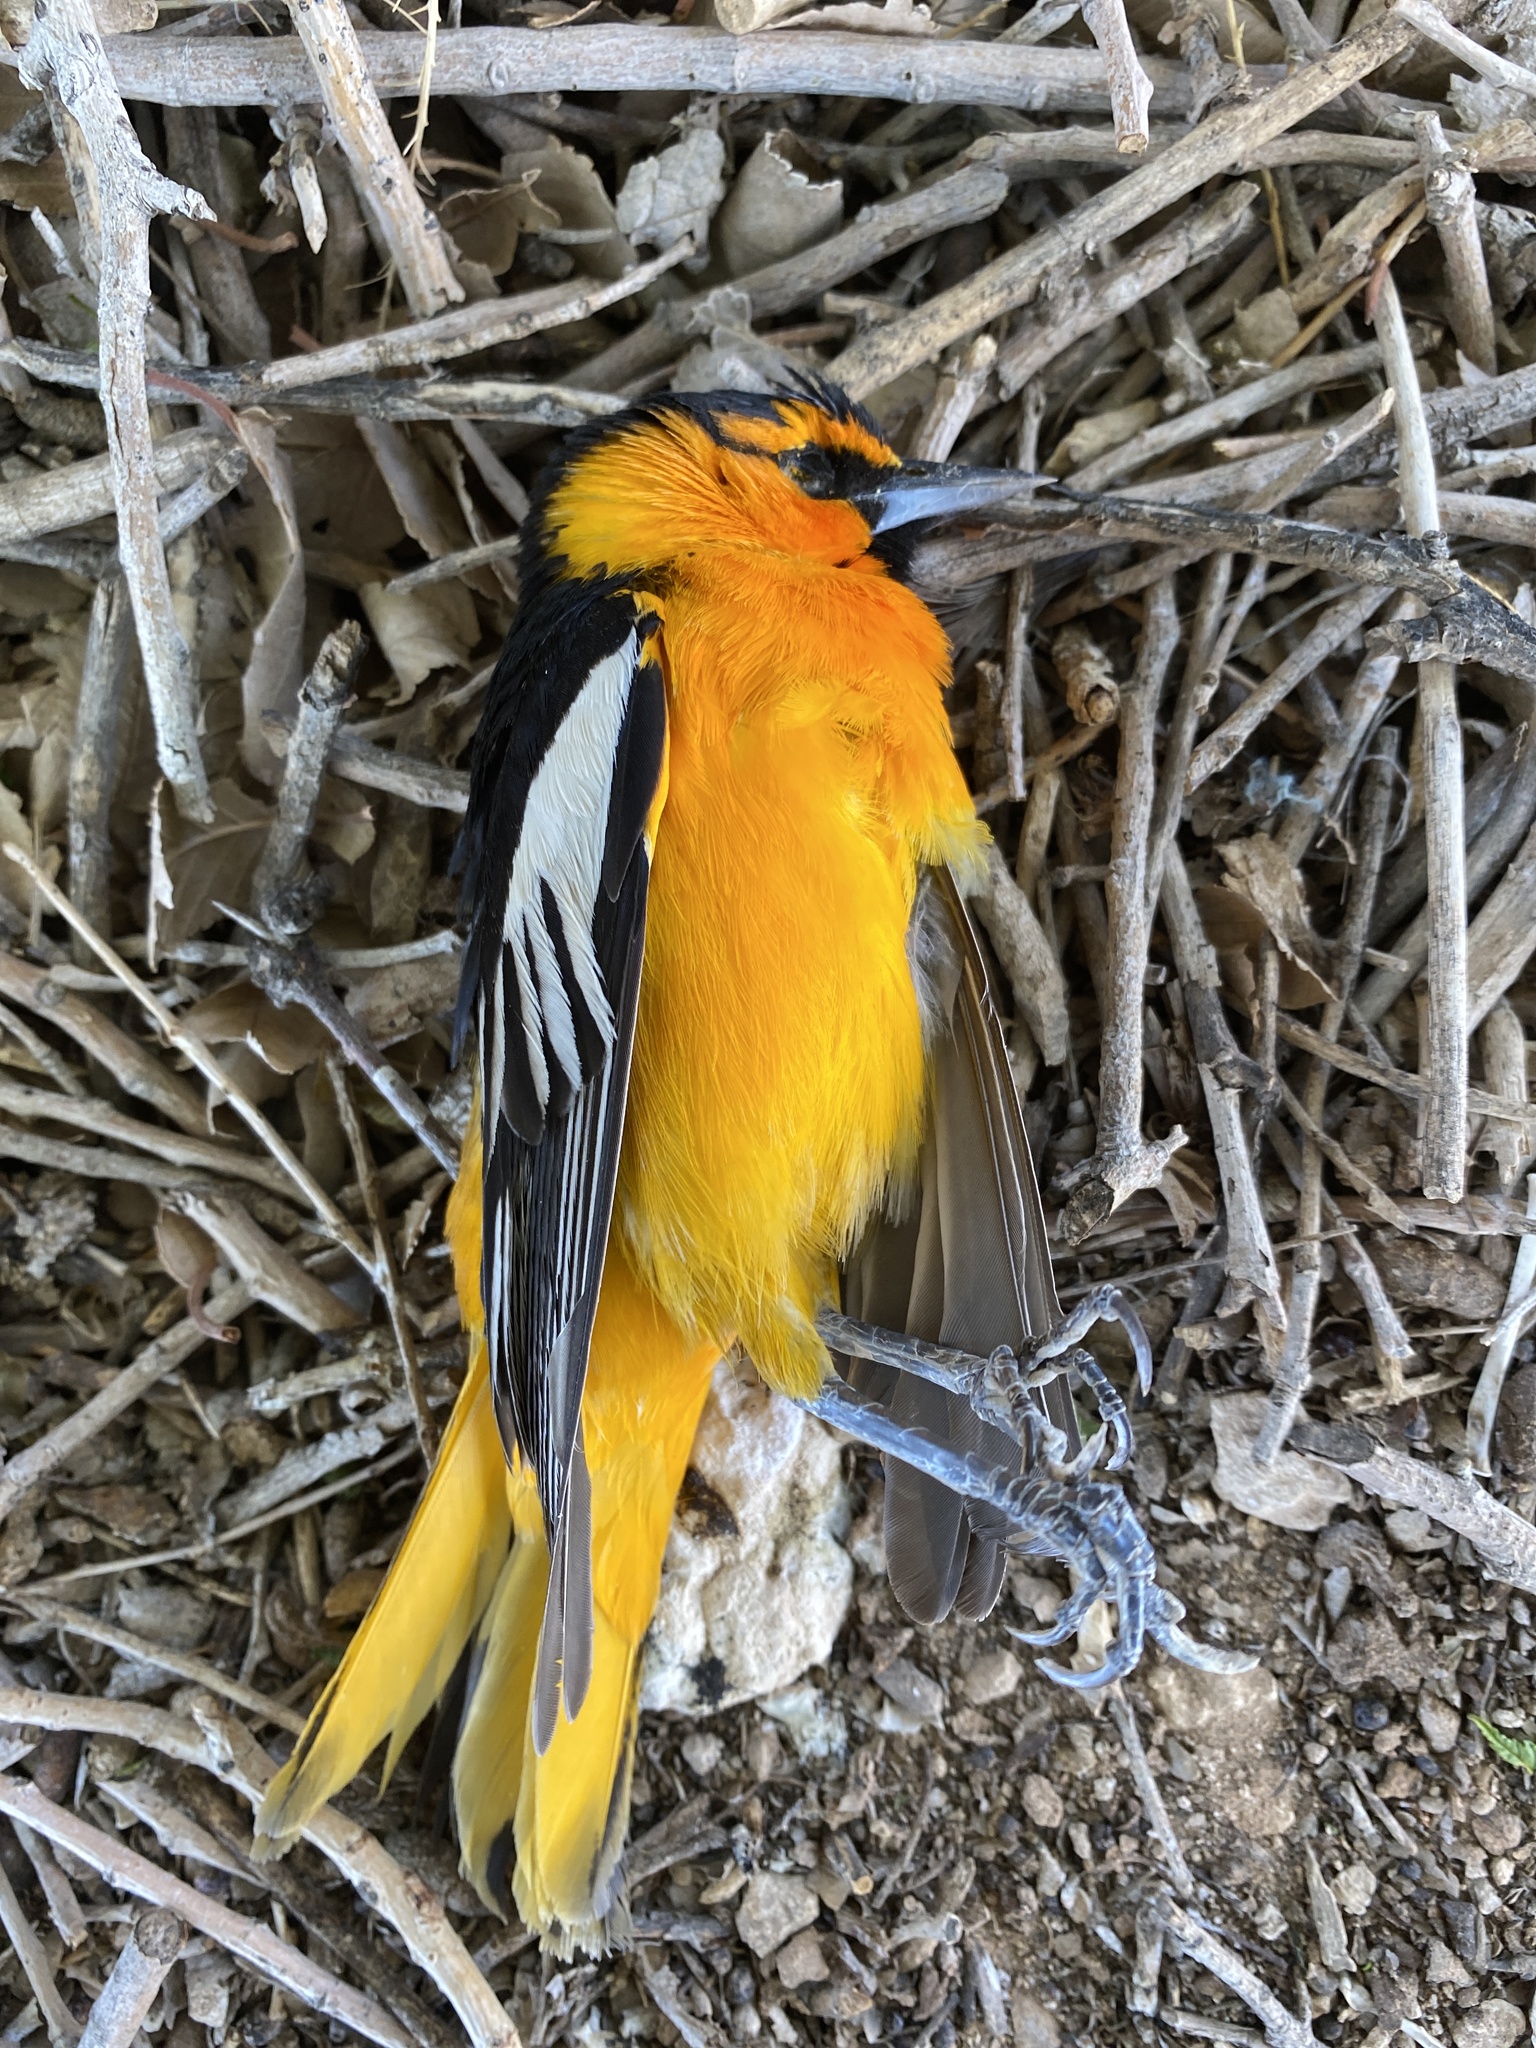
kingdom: Animalia
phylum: Chordata
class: Aves
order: Passeriformes
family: Icteridae
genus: Icterus
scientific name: Icterus bullockii
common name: Bullock's oriole
